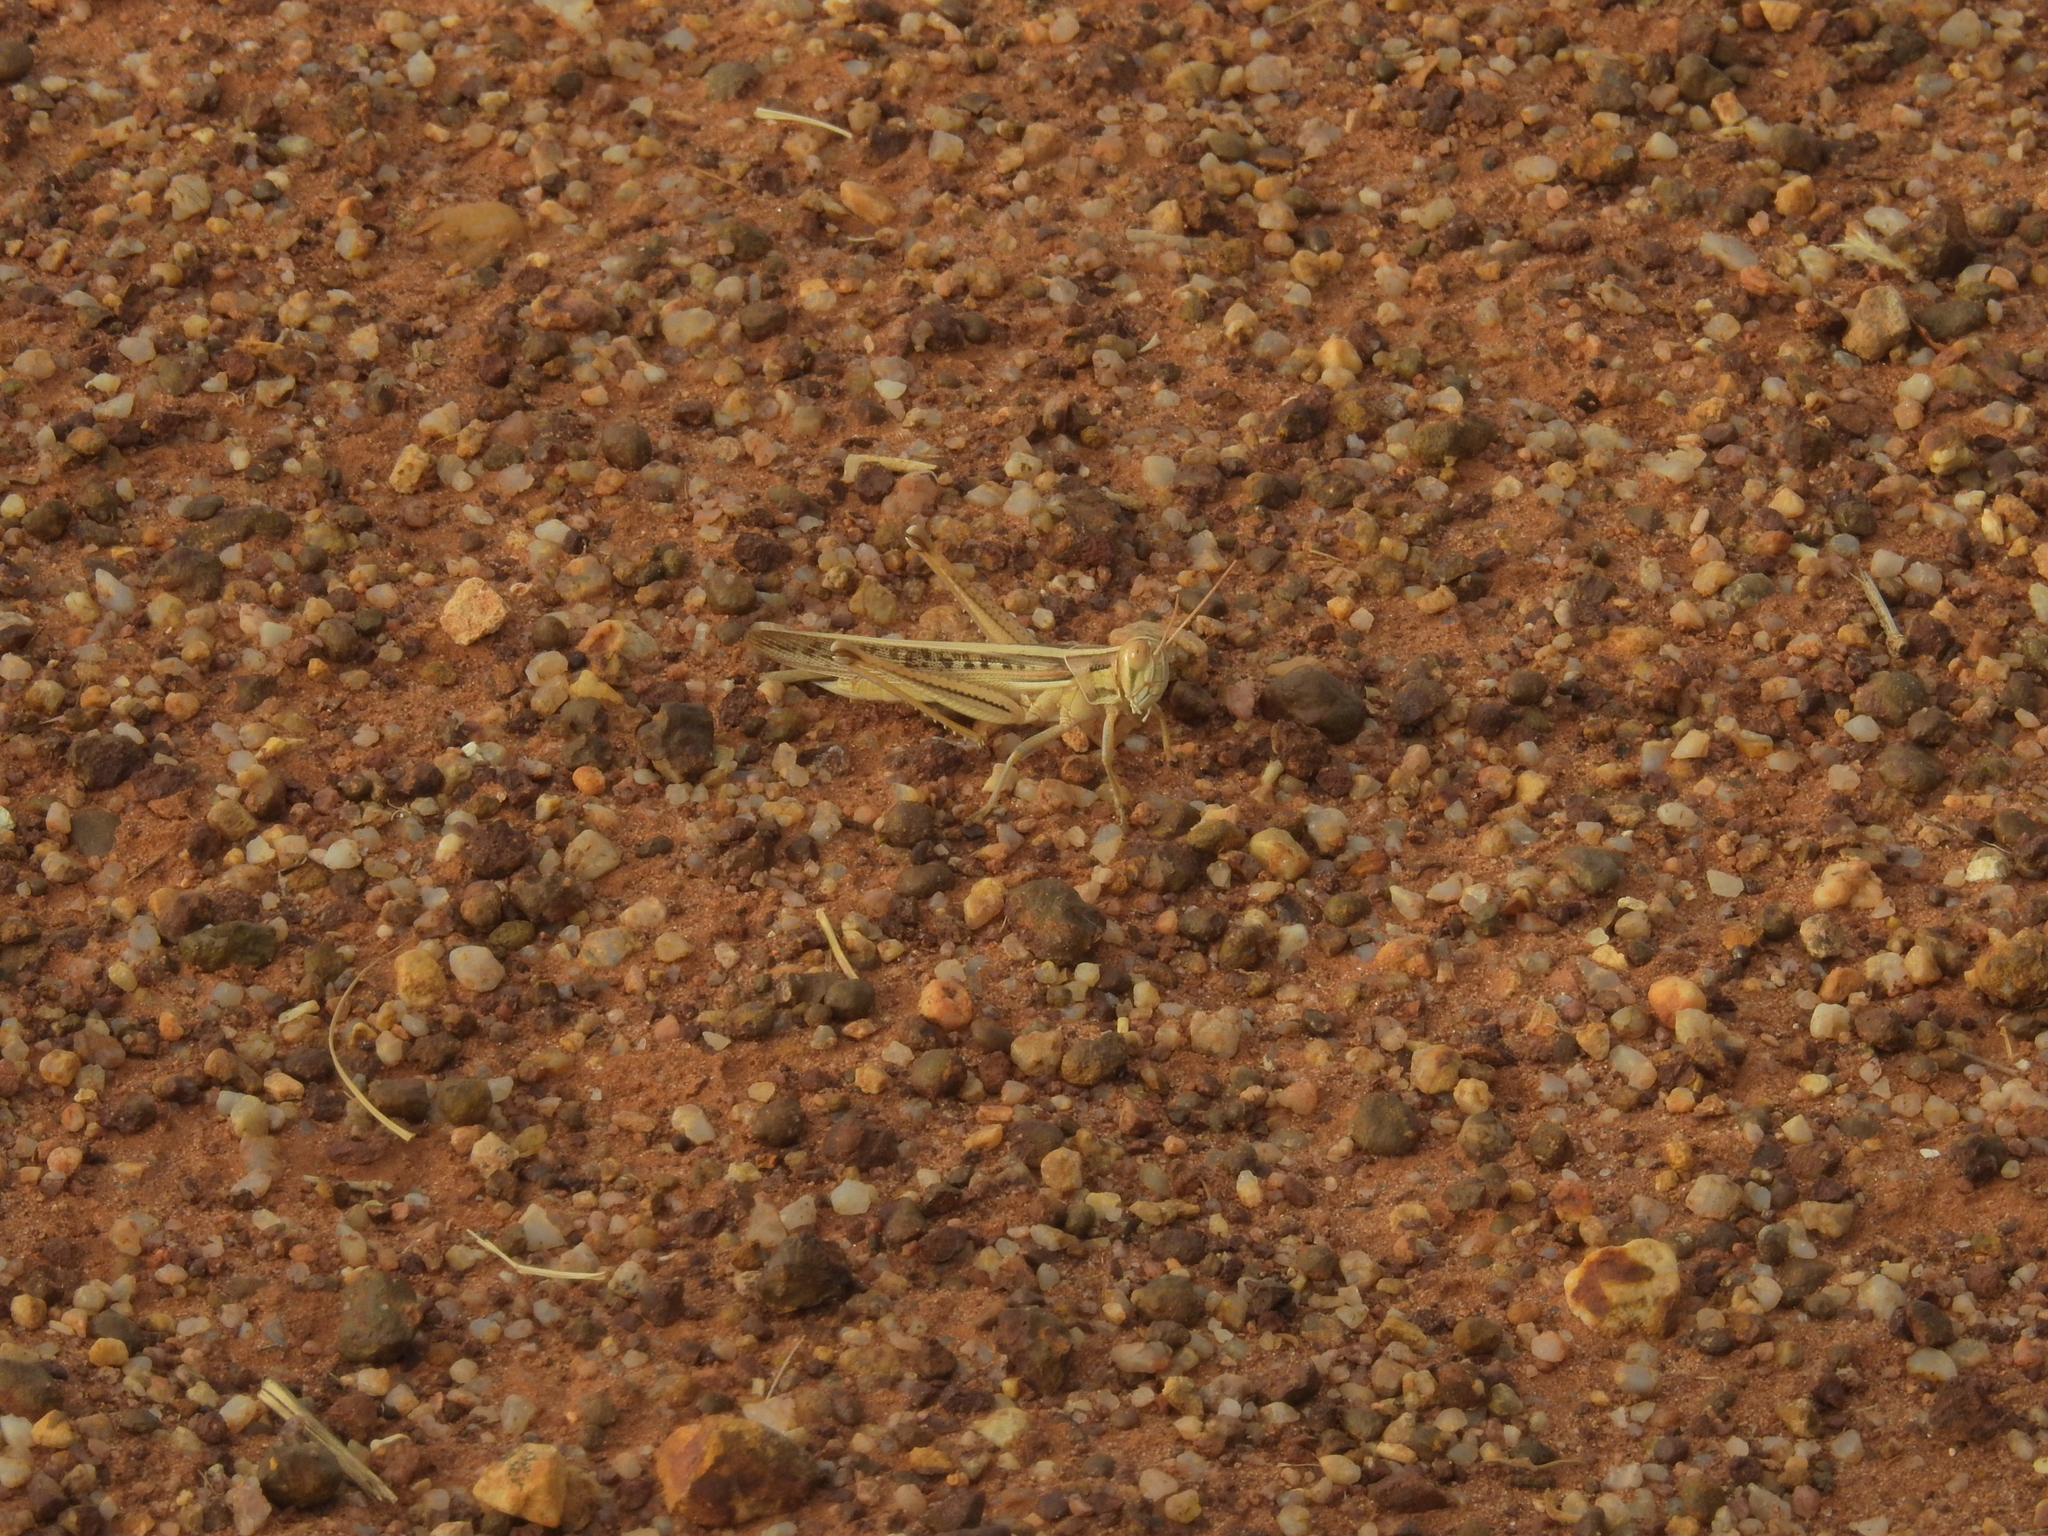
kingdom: Animalia
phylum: Arthropoda
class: Insecta
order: Orthoptera
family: Acrididae
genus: Austracris
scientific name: Austracris guttulosa
